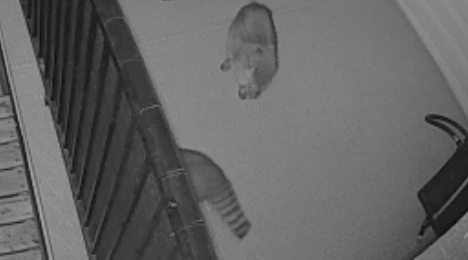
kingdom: Animalia
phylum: Chordata
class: Mammalia
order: Carnivora
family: Procyonidae
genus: Procyon
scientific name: Procyon lotor
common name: Raccoon
